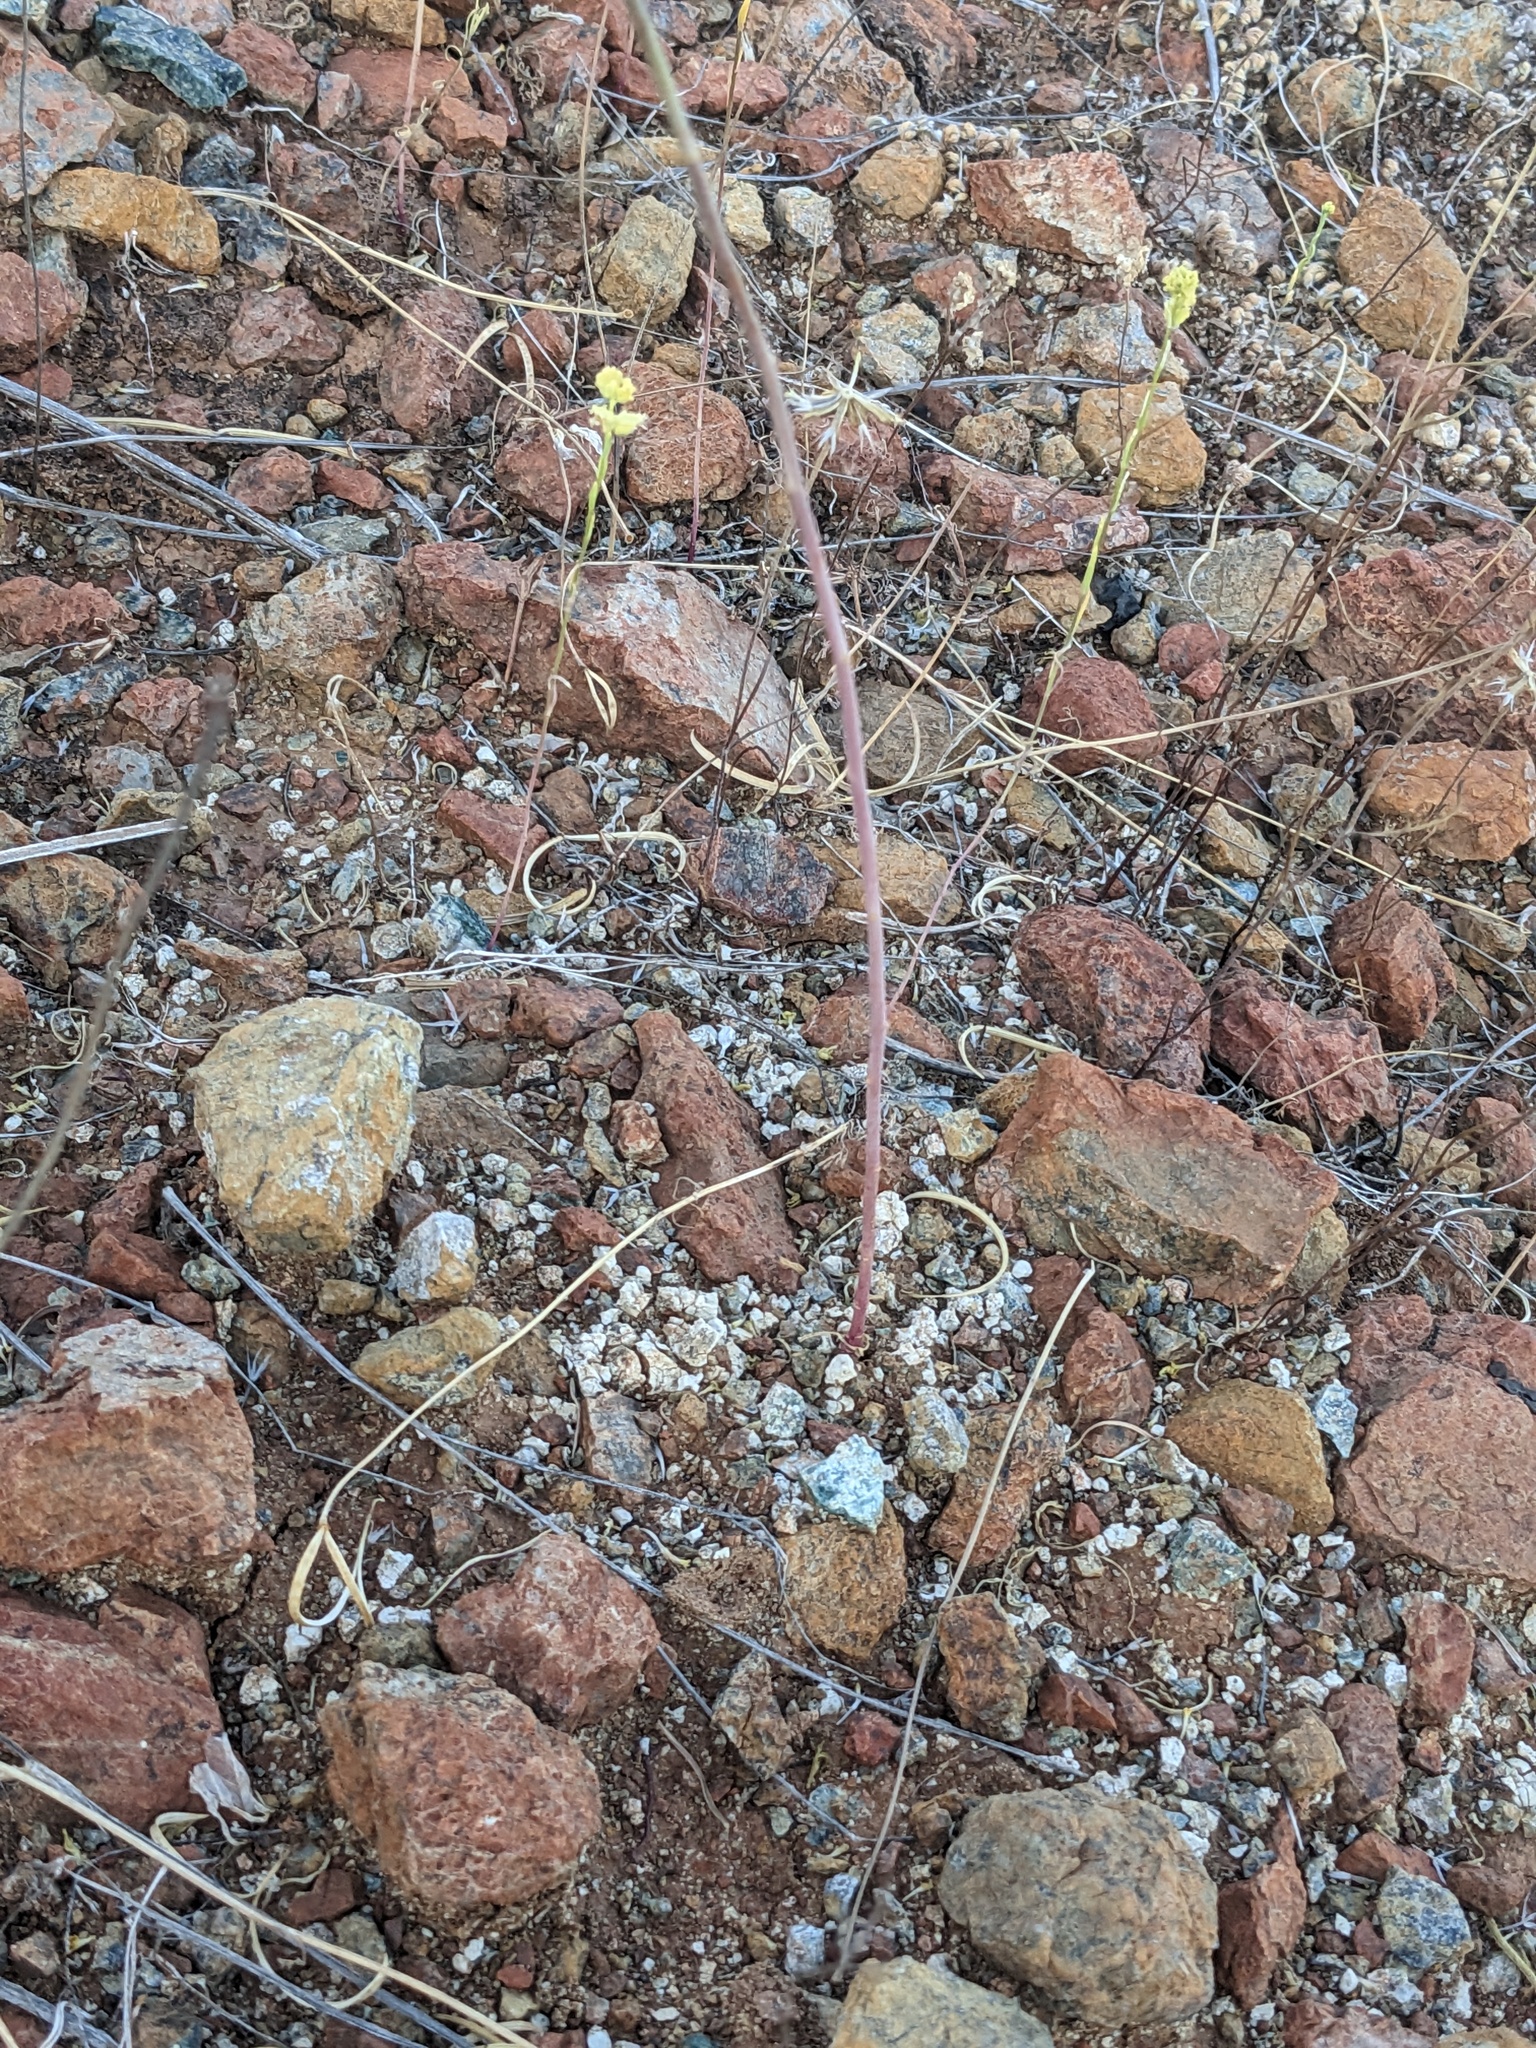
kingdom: Plantae
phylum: Tracheophyta
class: Magnoliopsida
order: Brassicales
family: Brassicaceae
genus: Streptanthus
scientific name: Streptanthus polygaloides
